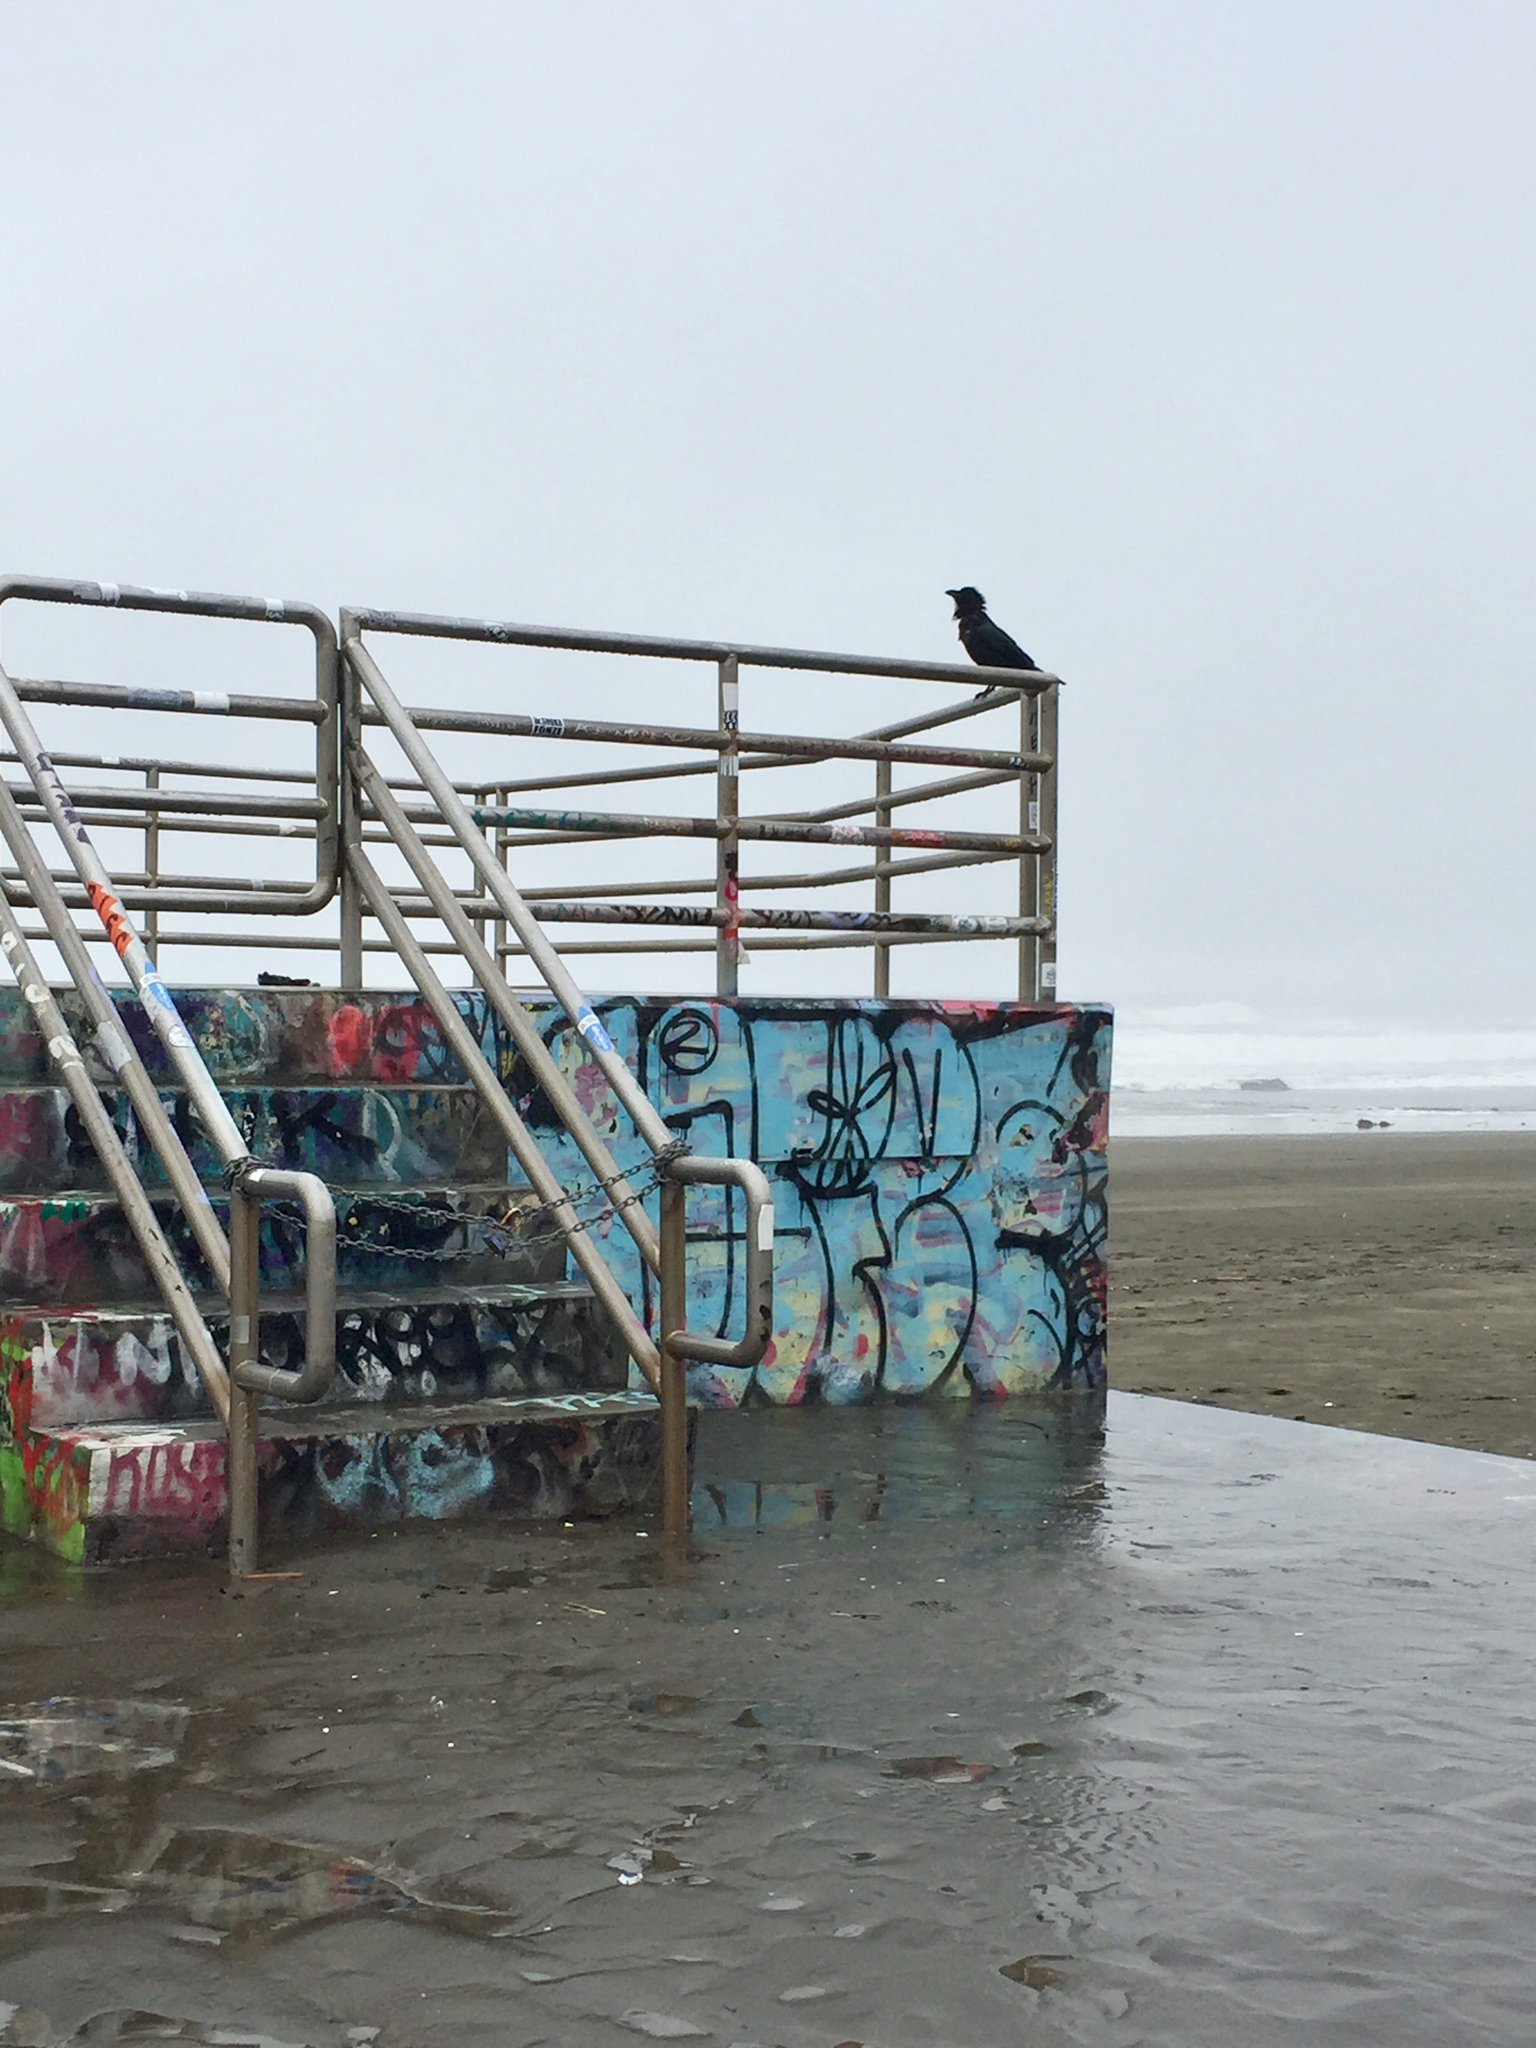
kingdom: Animalia
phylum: Chordata
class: Aves
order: Passeriformes
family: Corvidae
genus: Corvus
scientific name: Corvus corax
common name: Common raven
